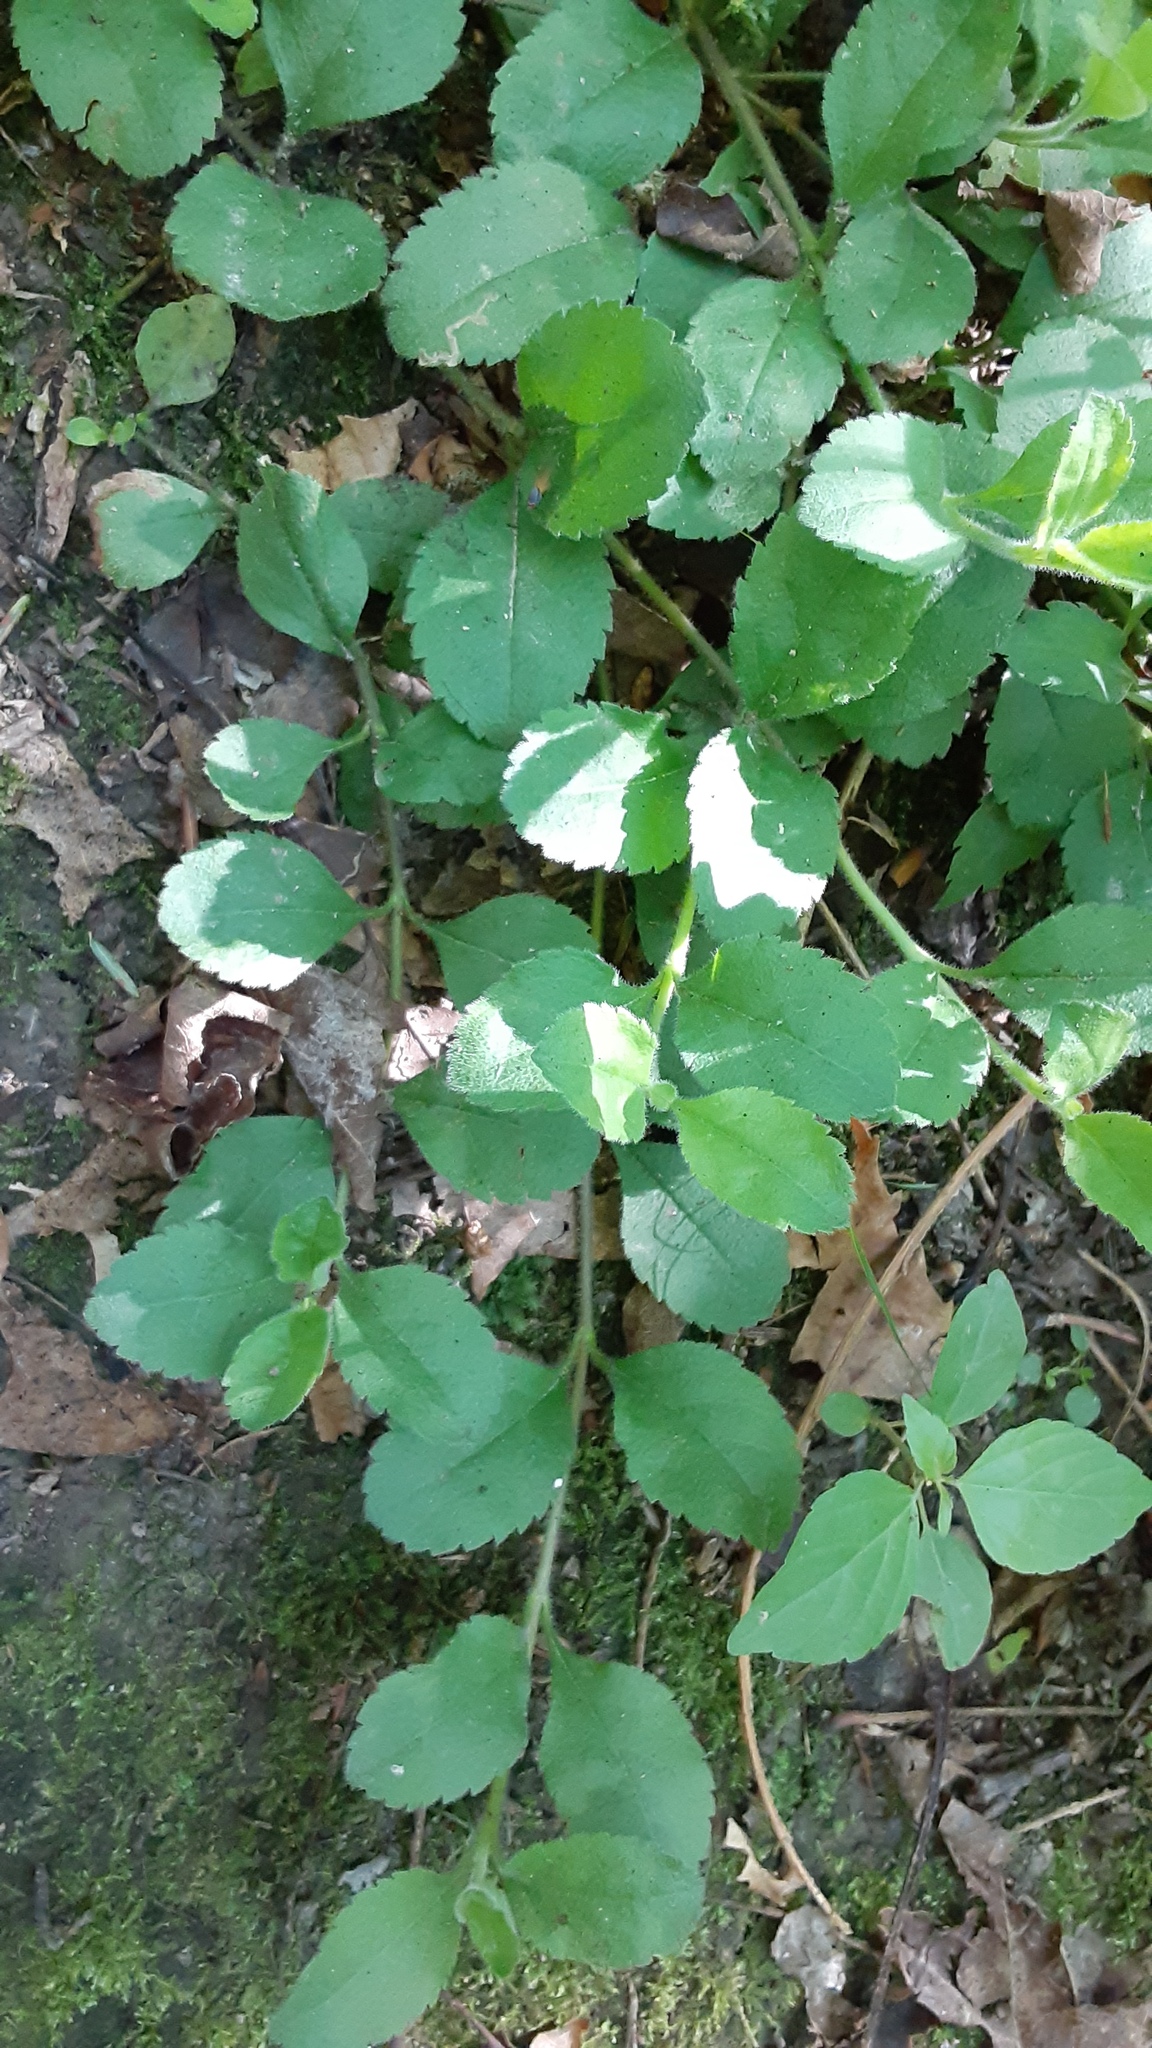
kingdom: Plantae
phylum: Tracheophyta
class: Magnoliopsida
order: Lamiales
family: Plantaginaceae
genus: Veronica
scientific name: Veronica officinalis
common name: Common speedwell
